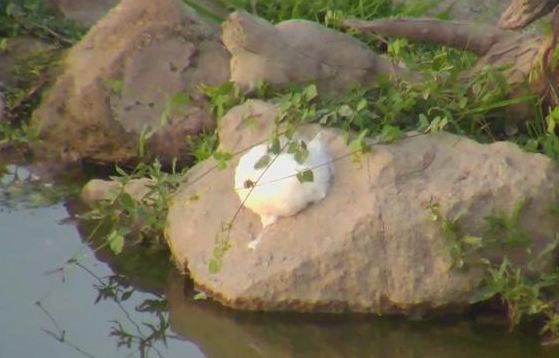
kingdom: Animalia
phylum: Chordata
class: Amphibia
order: Anura
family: Rhacophoridae
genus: Chiromantis
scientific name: Chiromantis xerampelina
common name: African gray treefrog
